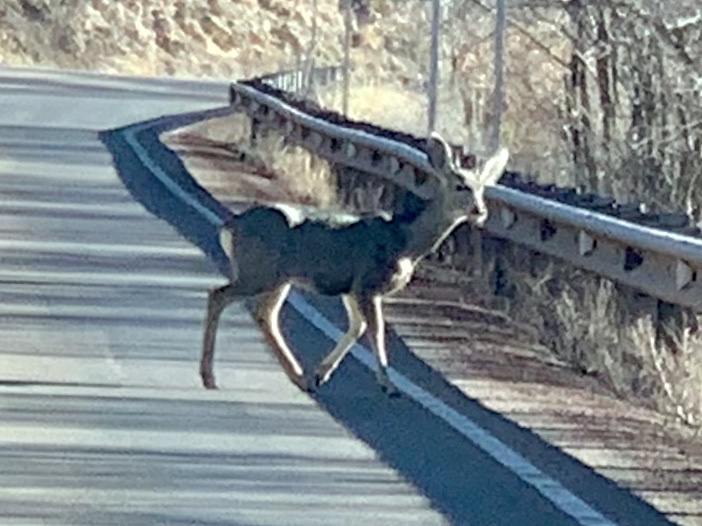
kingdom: Animalia
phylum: Chordata
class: Mammalia
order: Artiodactyla
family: Cervidae
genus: Odocoileus
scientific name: Odocoileus hemionus
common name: Mule deer
